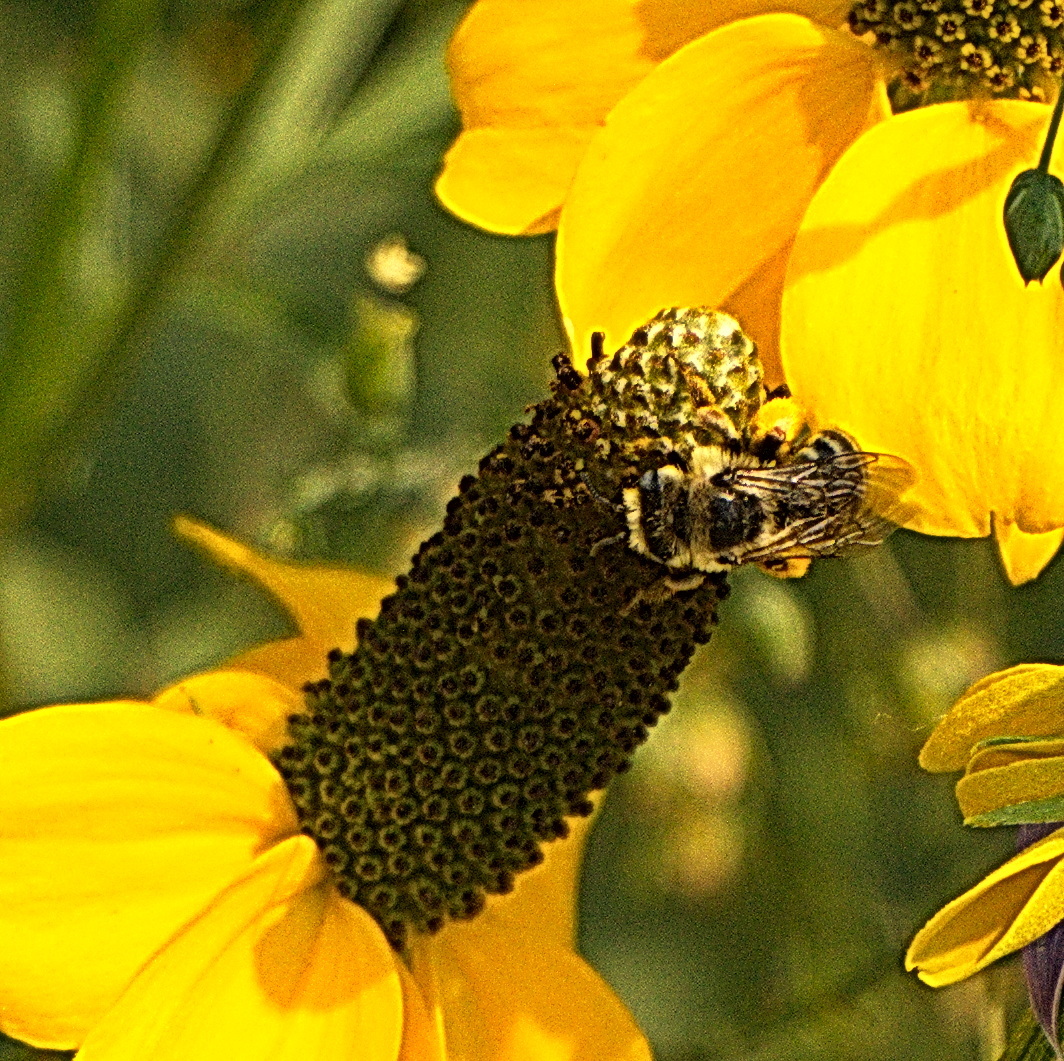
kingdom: Animalia
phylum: Arthropoda
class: Insecta
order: Hymenoptera
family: Apidae
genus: Melissodes
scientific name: Melissodes
